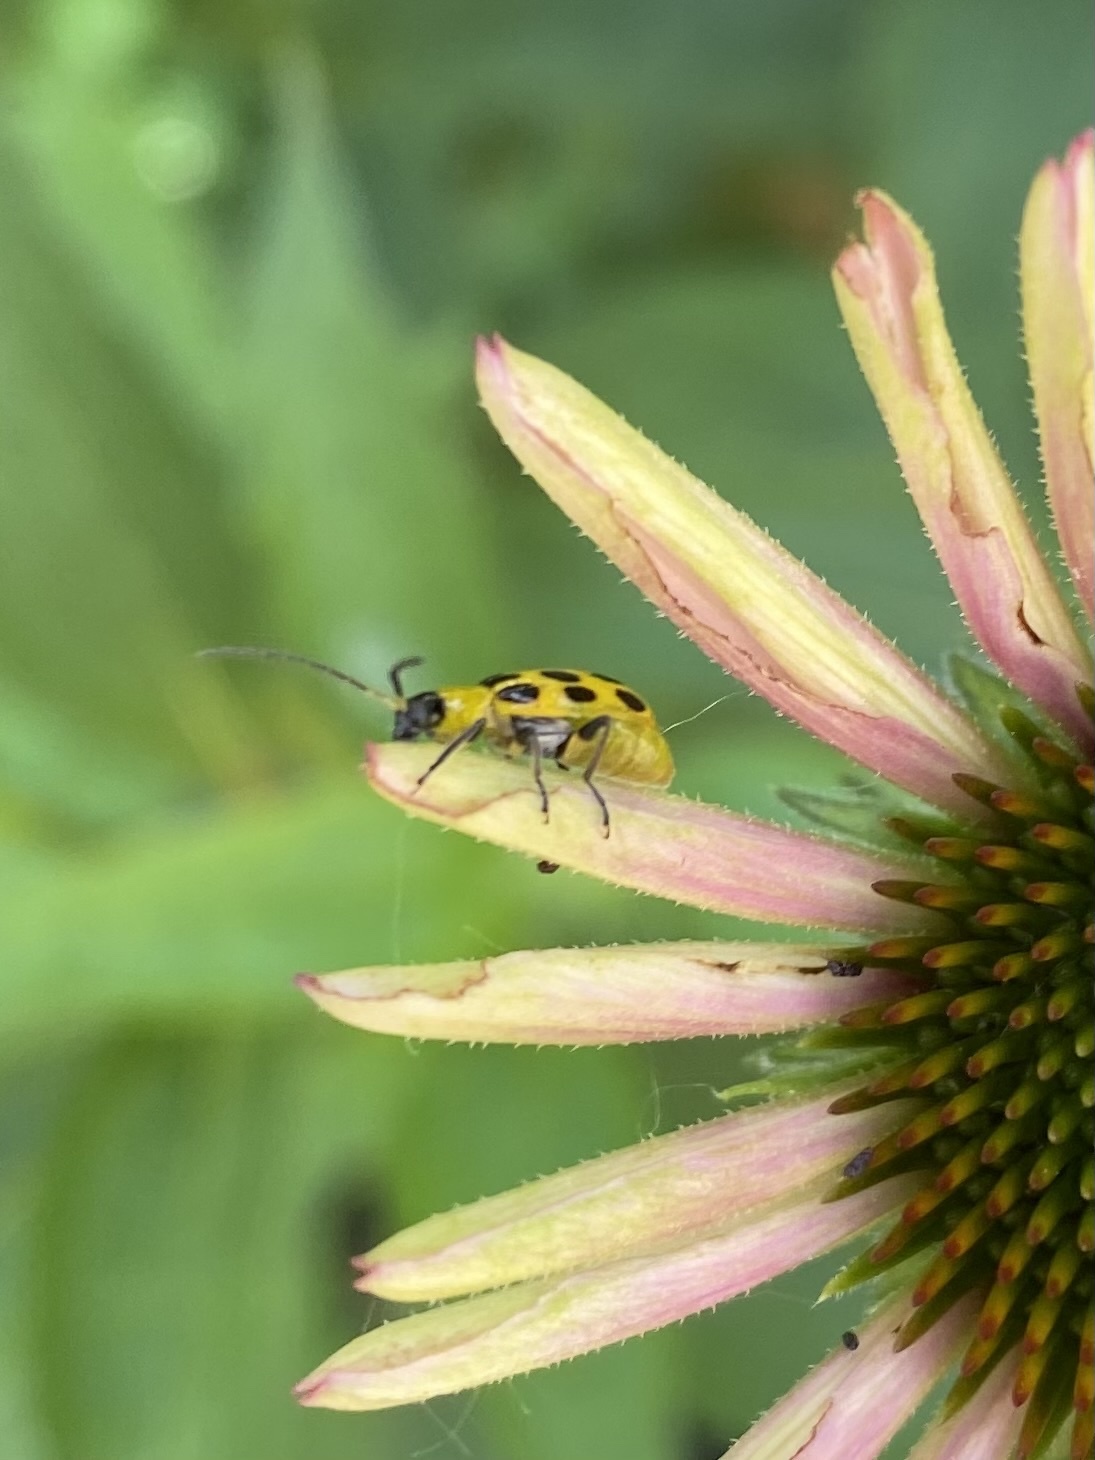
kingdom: Animalia
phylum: Arthropoda
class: Insecta
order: Coleoptera
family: Chrysomelidae
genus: Diabrotica
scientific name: Diabrotica undecimpunctata
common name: Spotted cucumber beetle
